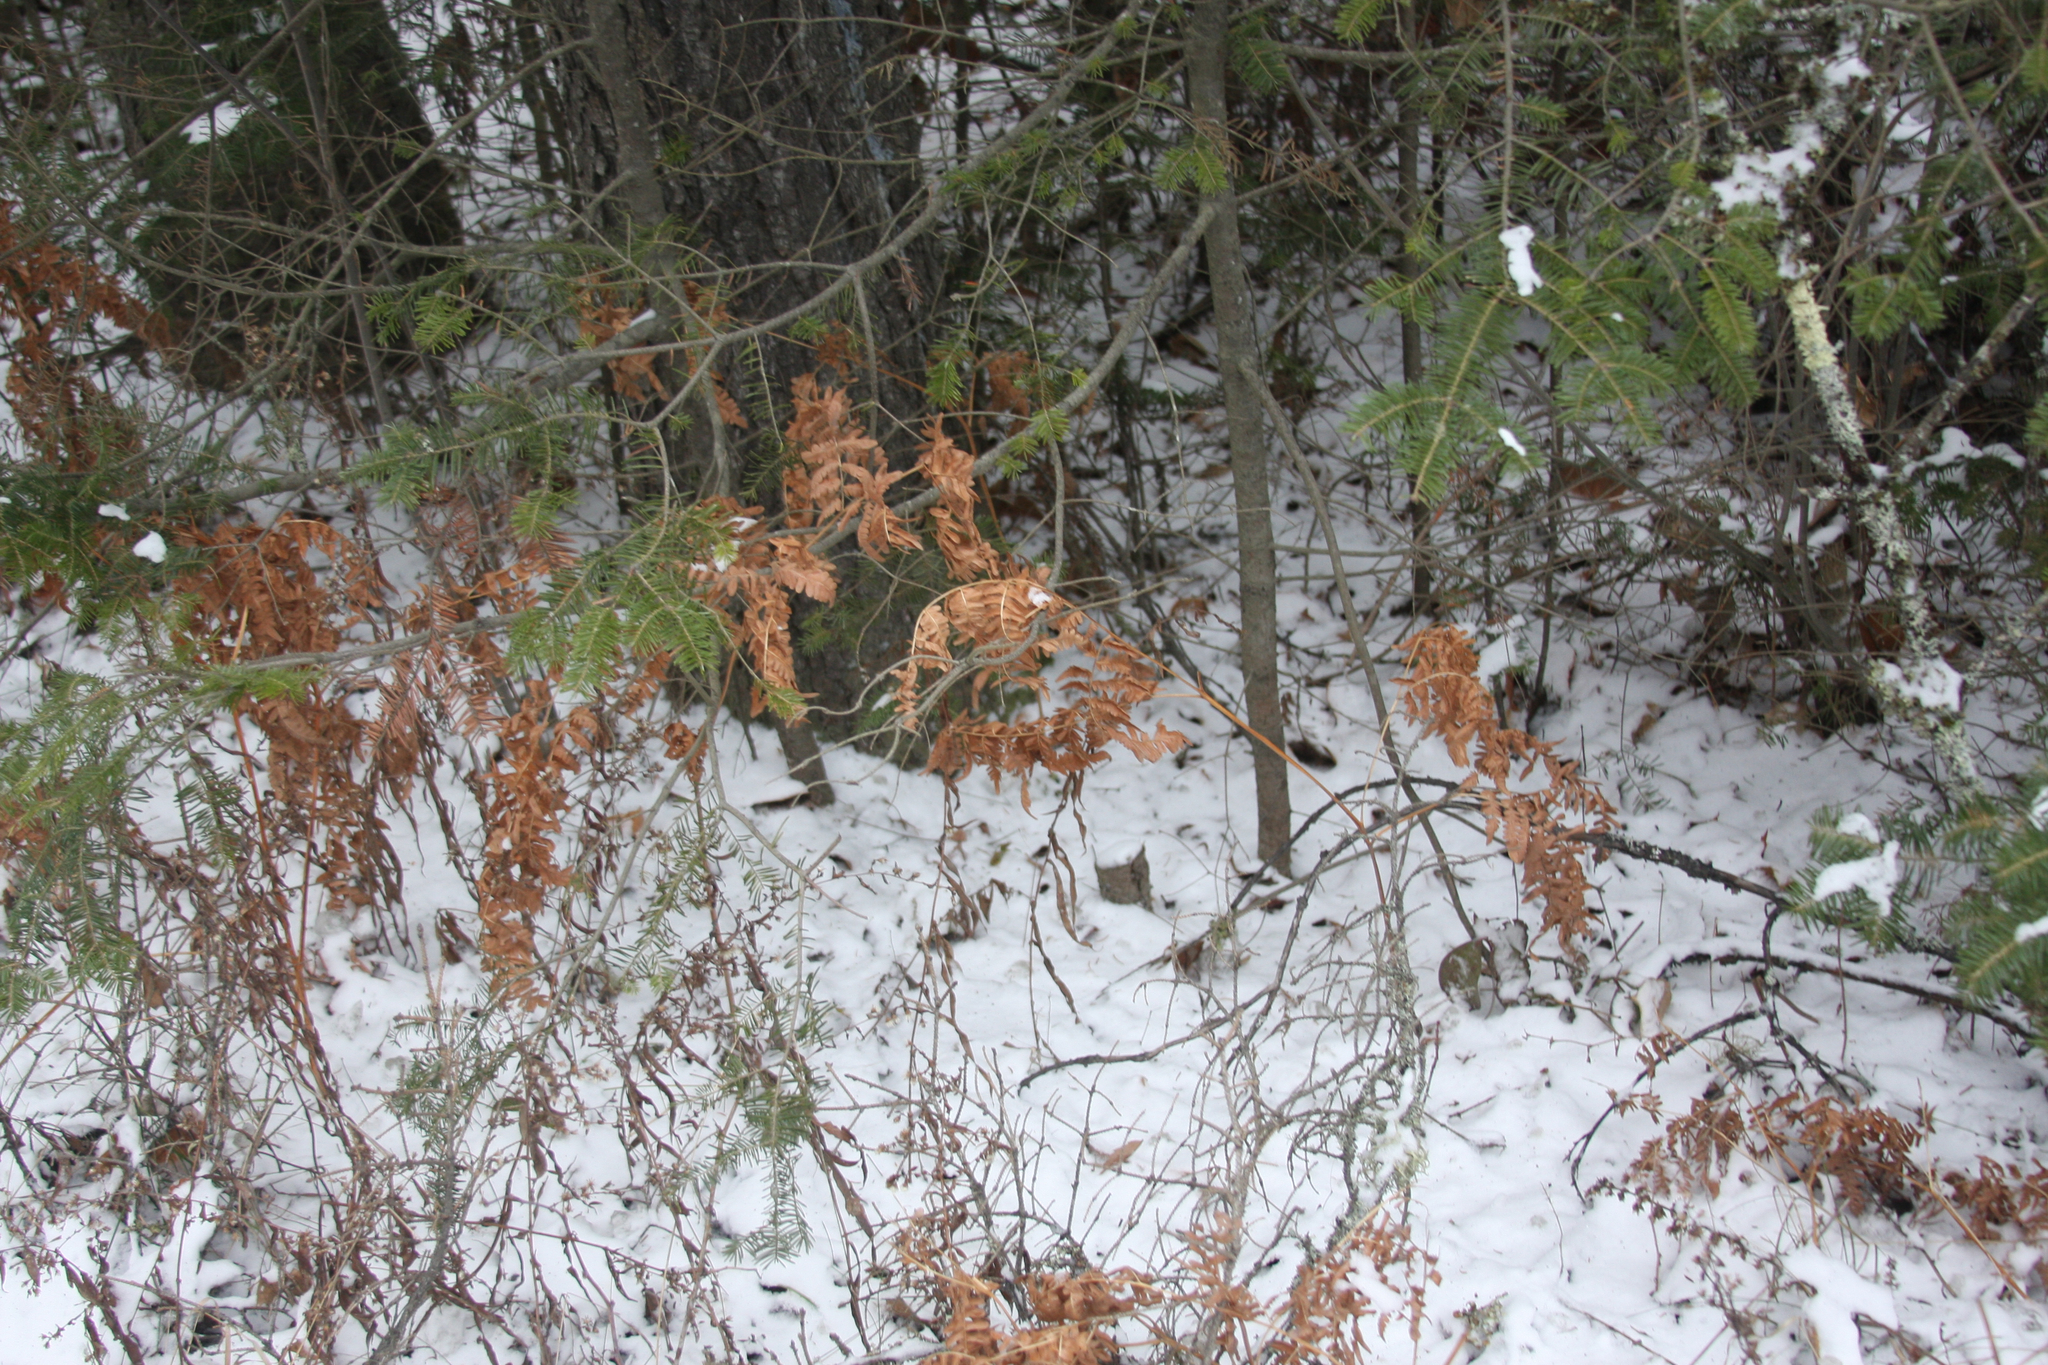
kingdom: Plantae
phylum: Tracheophyta
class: Polypodiopsida
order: Polypodiales
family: Dennstaedtiaceae
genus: Pteridium
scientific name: Pteridium aquilinum
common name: Bracken
